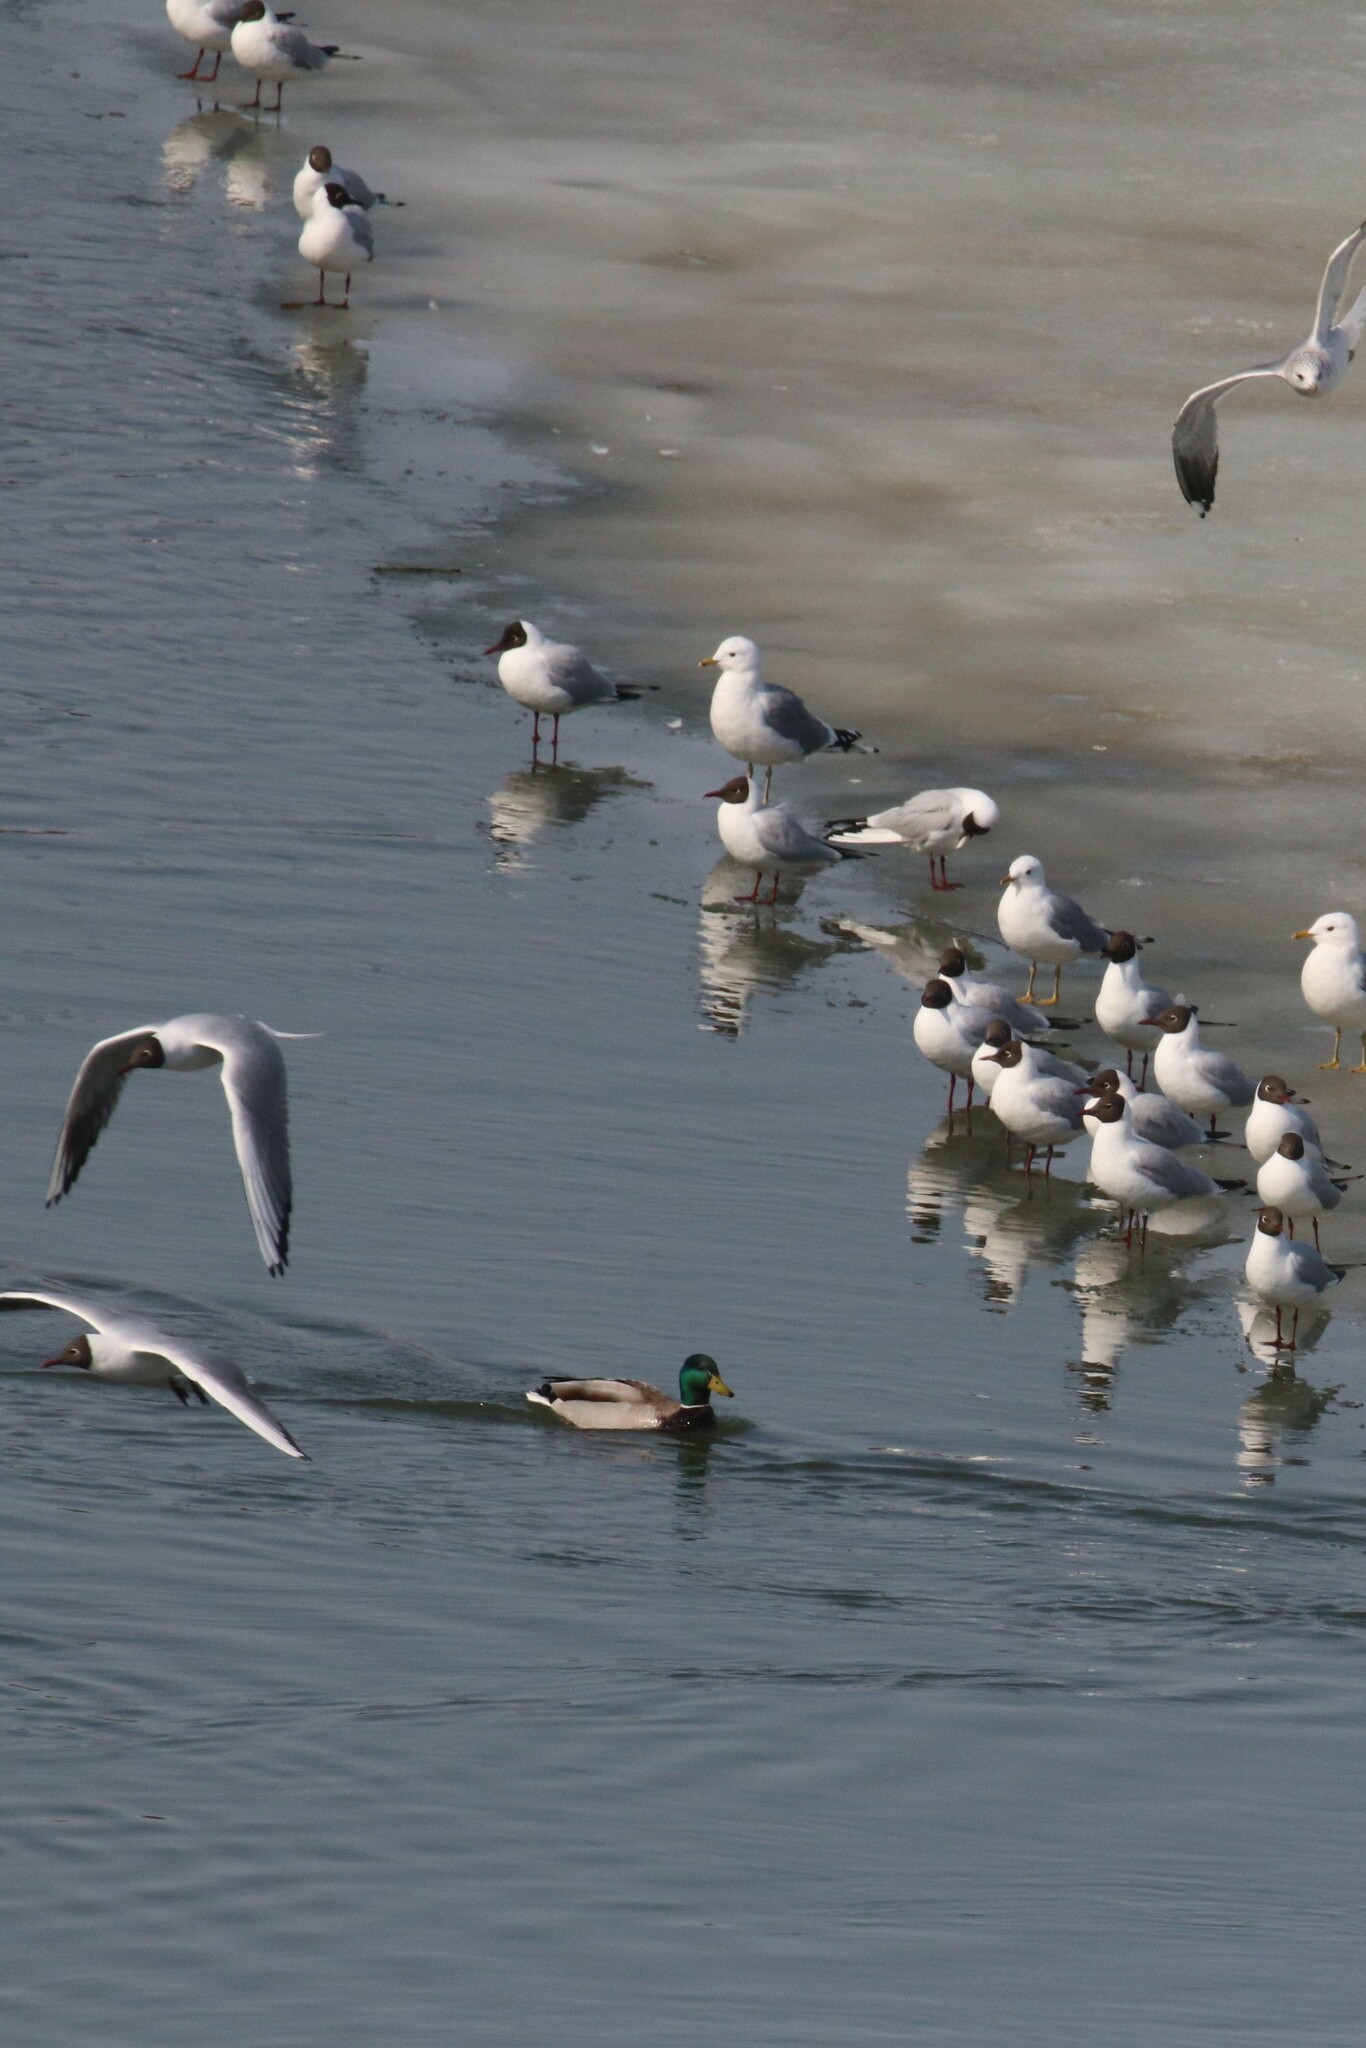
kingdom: Animalia
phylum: Chordata
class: Aves
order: Charadriiformes
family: Laridae
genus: Chroicocephalus
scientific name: Chroicocephalus ridibundus
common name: Black-headed gull
